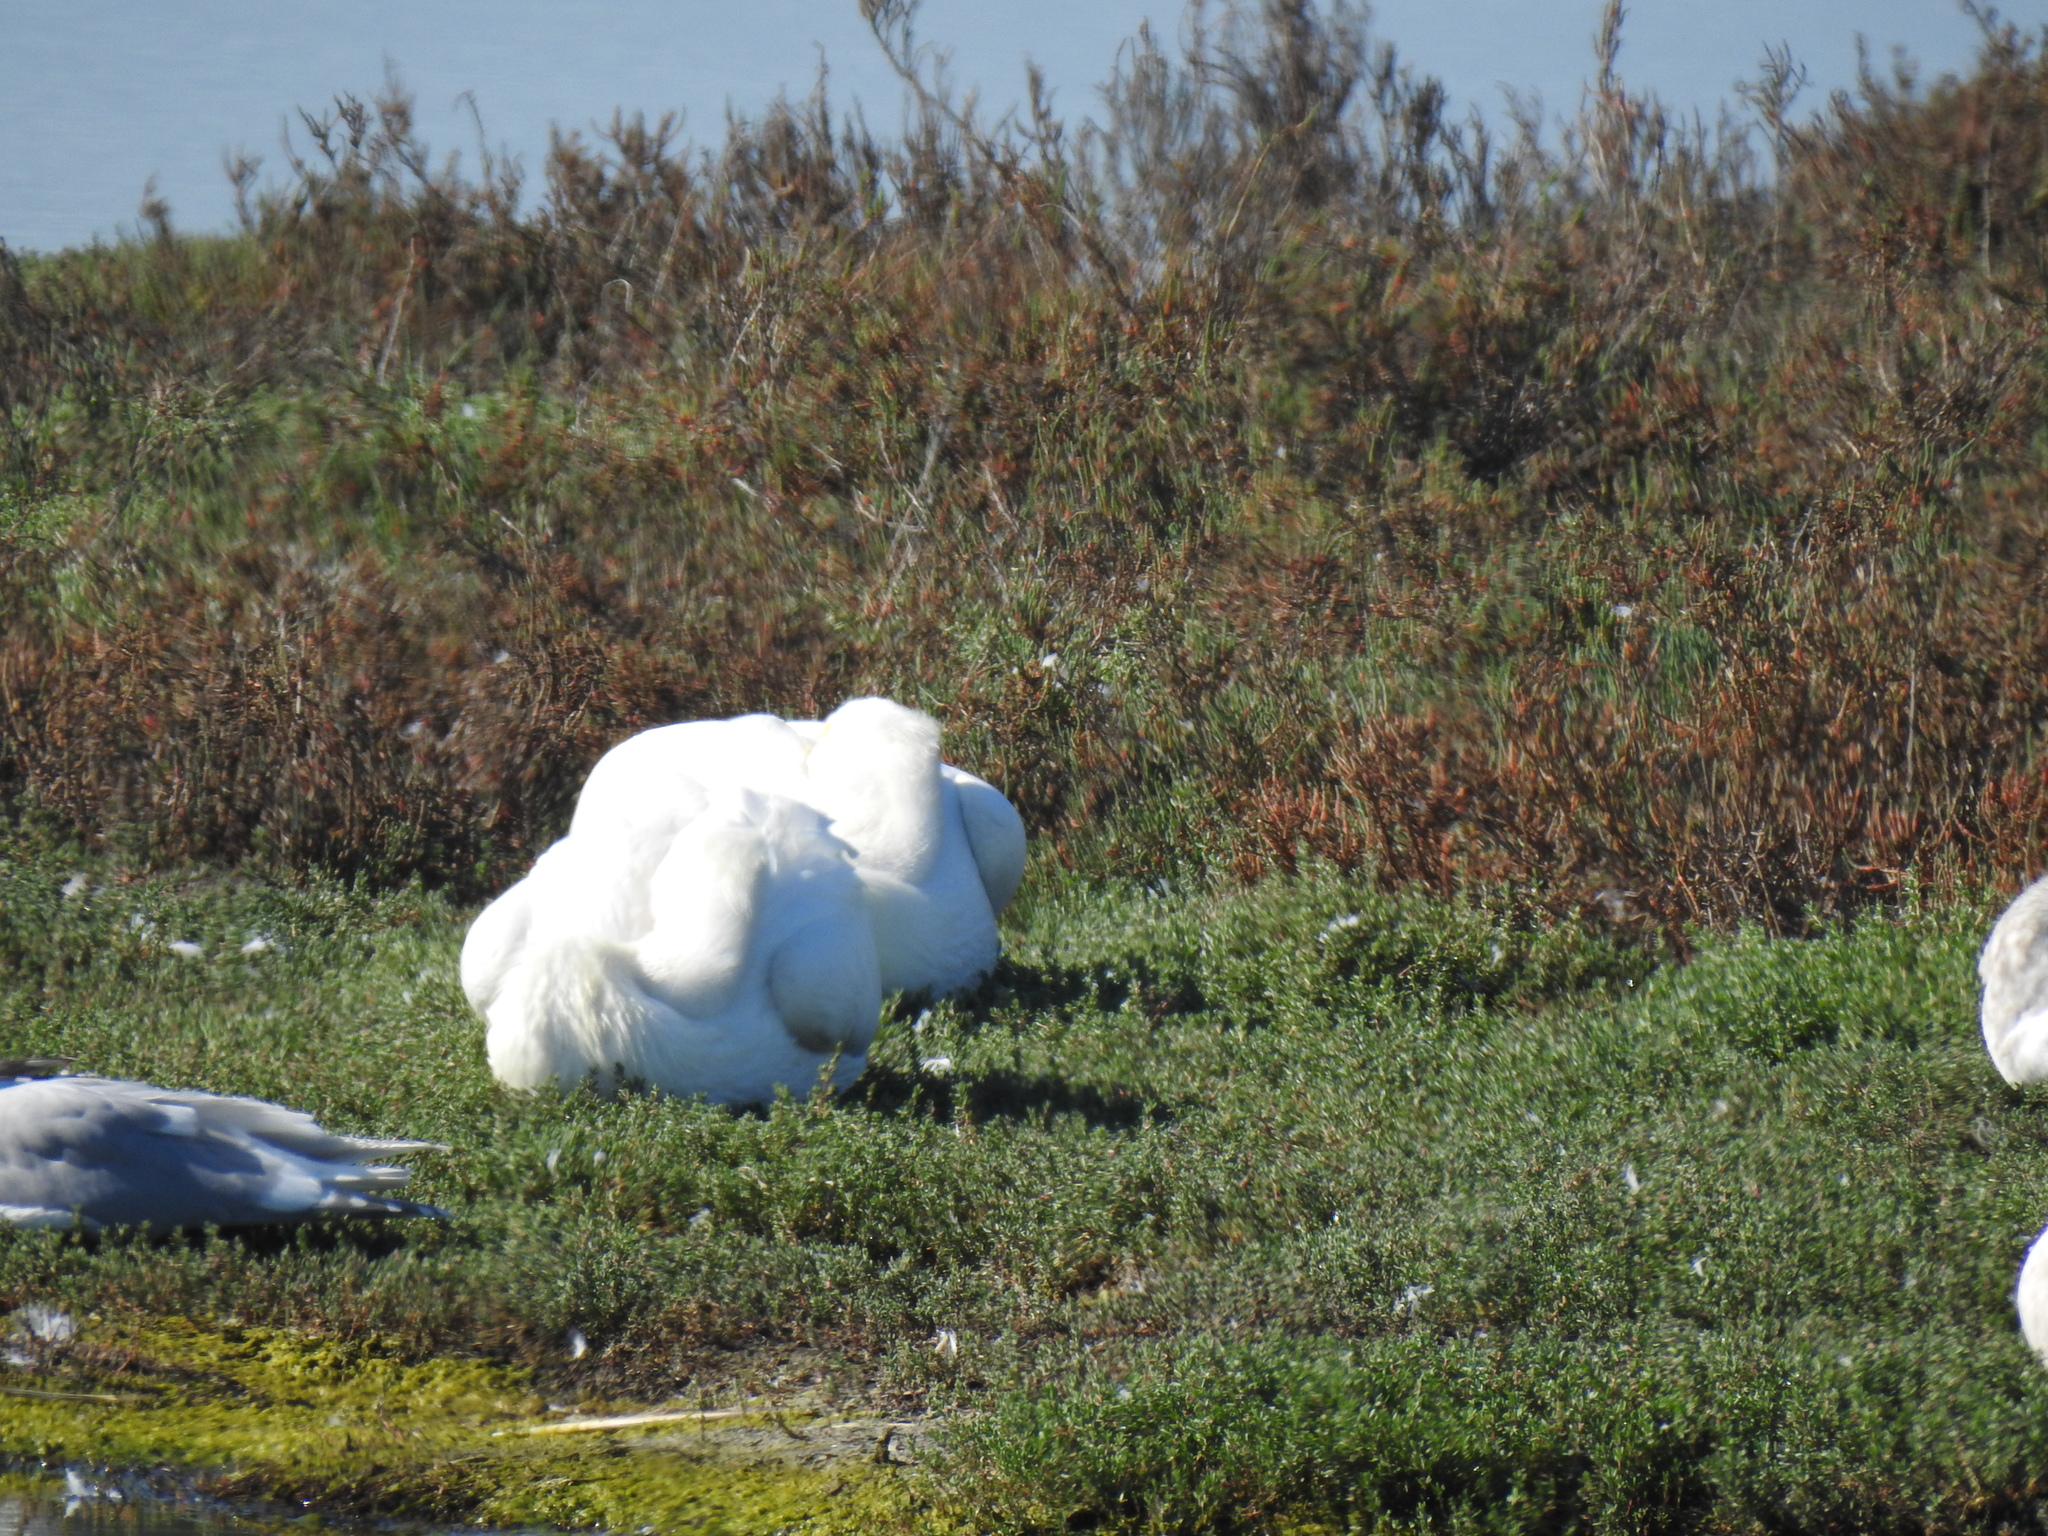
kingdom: Animalia
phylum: Chordata
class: Aves
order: Pelecaniformes
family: Pelecanidae
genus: Pelecanus
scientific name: Pelecanus erythrorhynchos
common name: American white pelican
